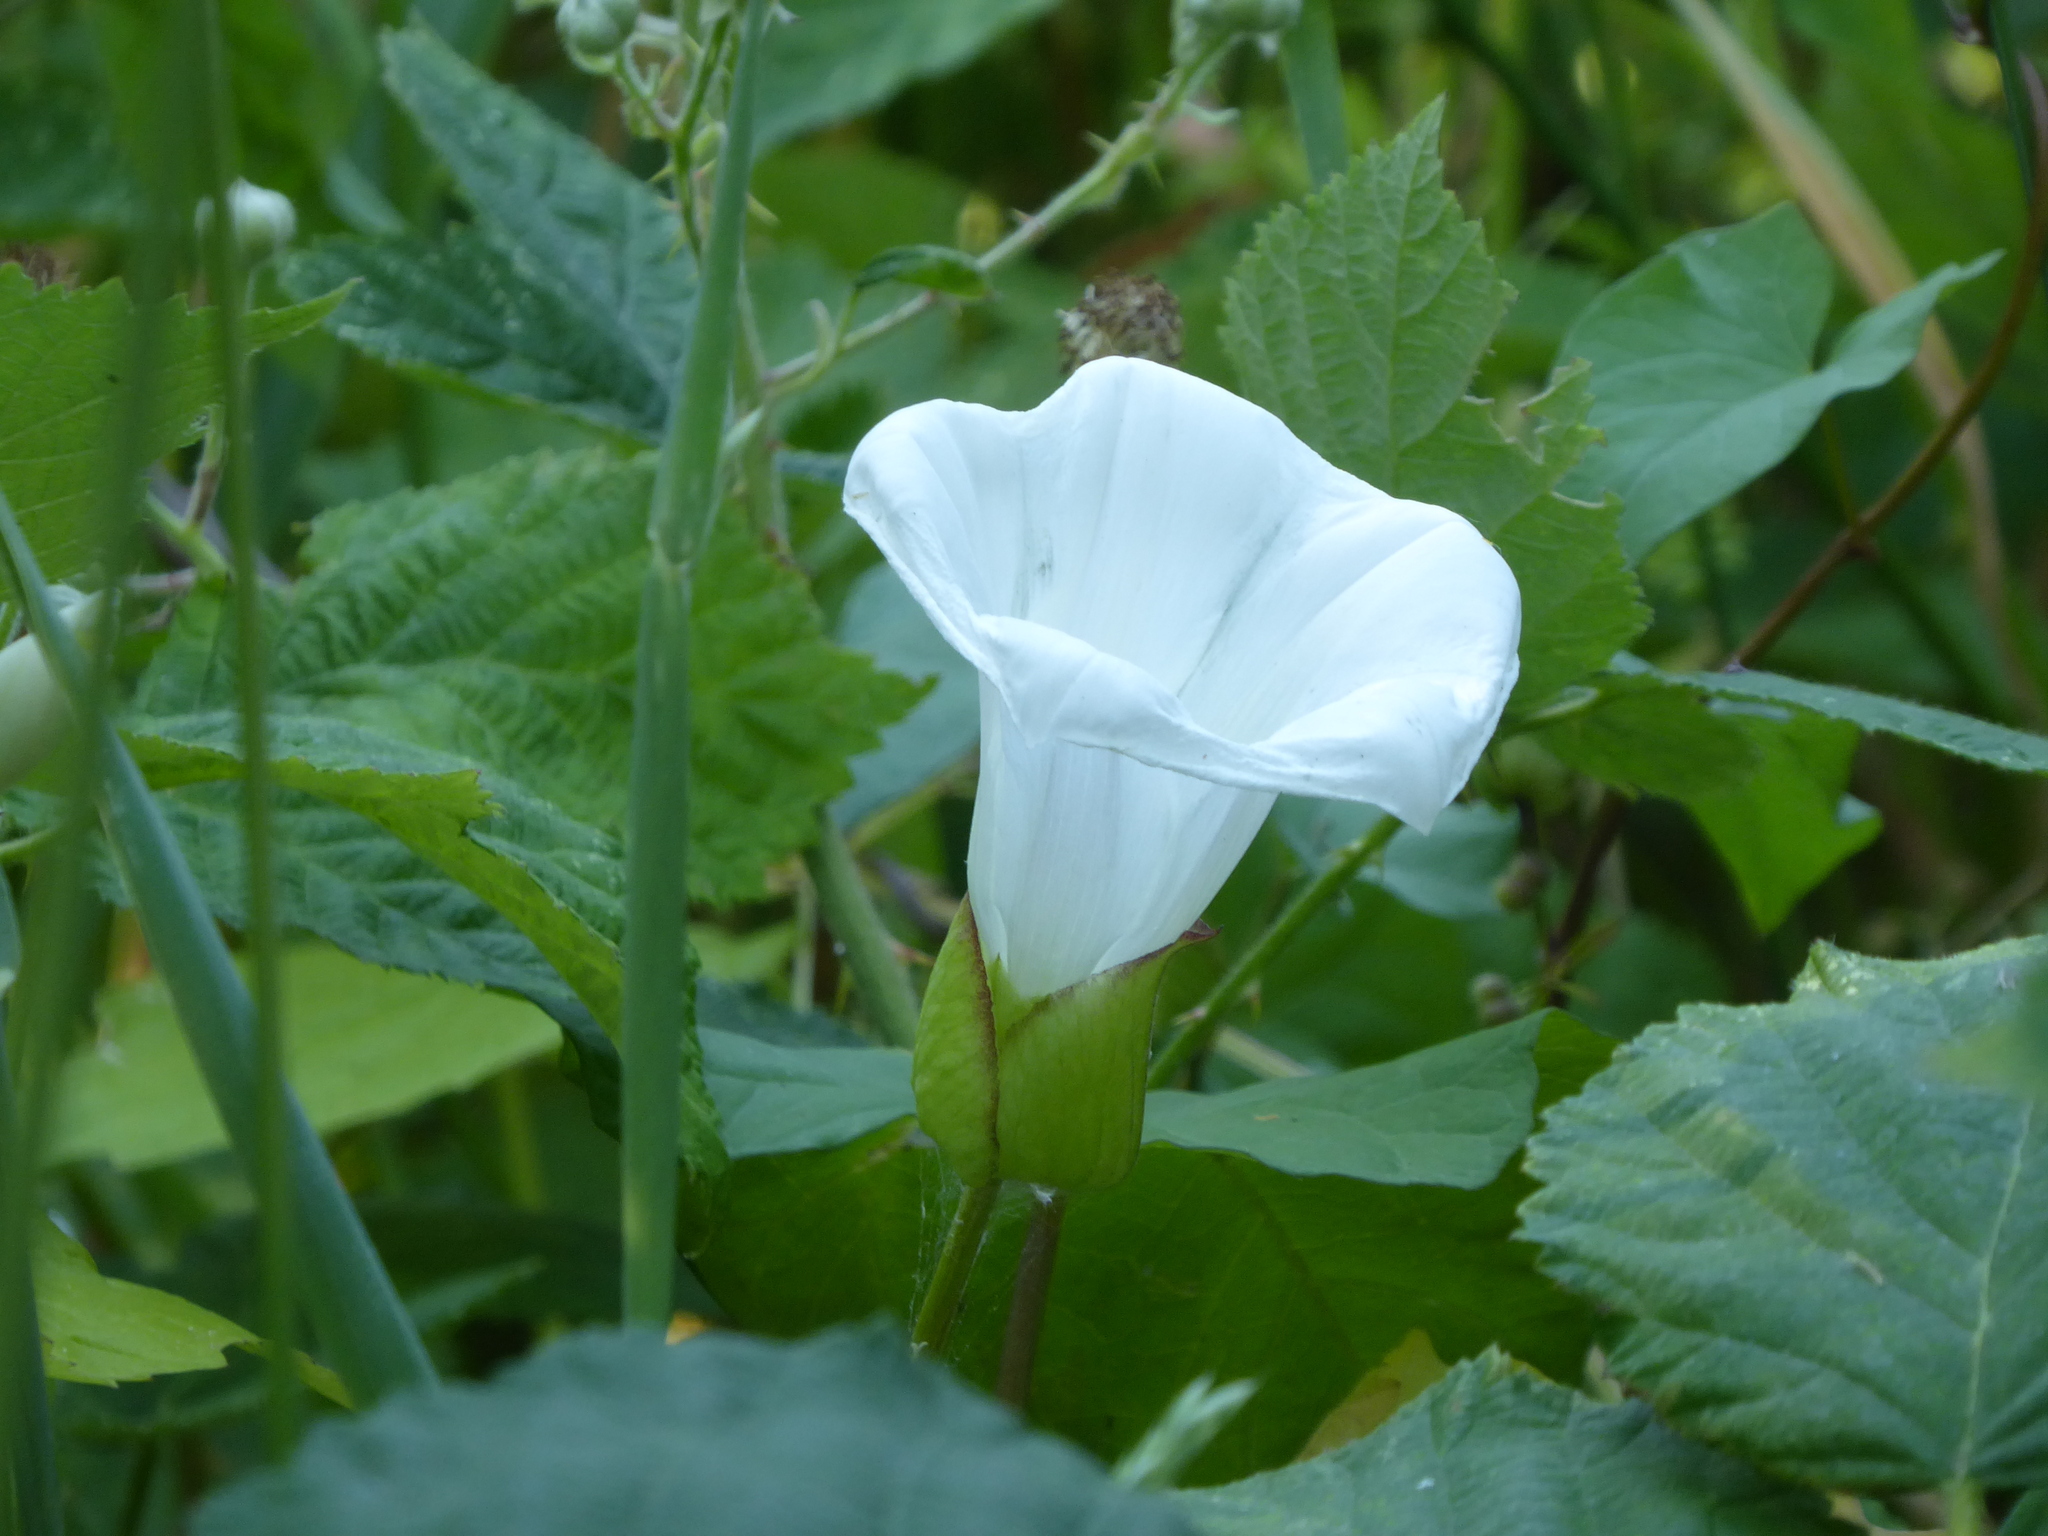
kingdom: Plantae
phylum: Tracheophyta
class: Magnoliopsida
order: Solanales
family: Convolvulaceae
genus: Calystegia
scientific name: Calystegia lucana
